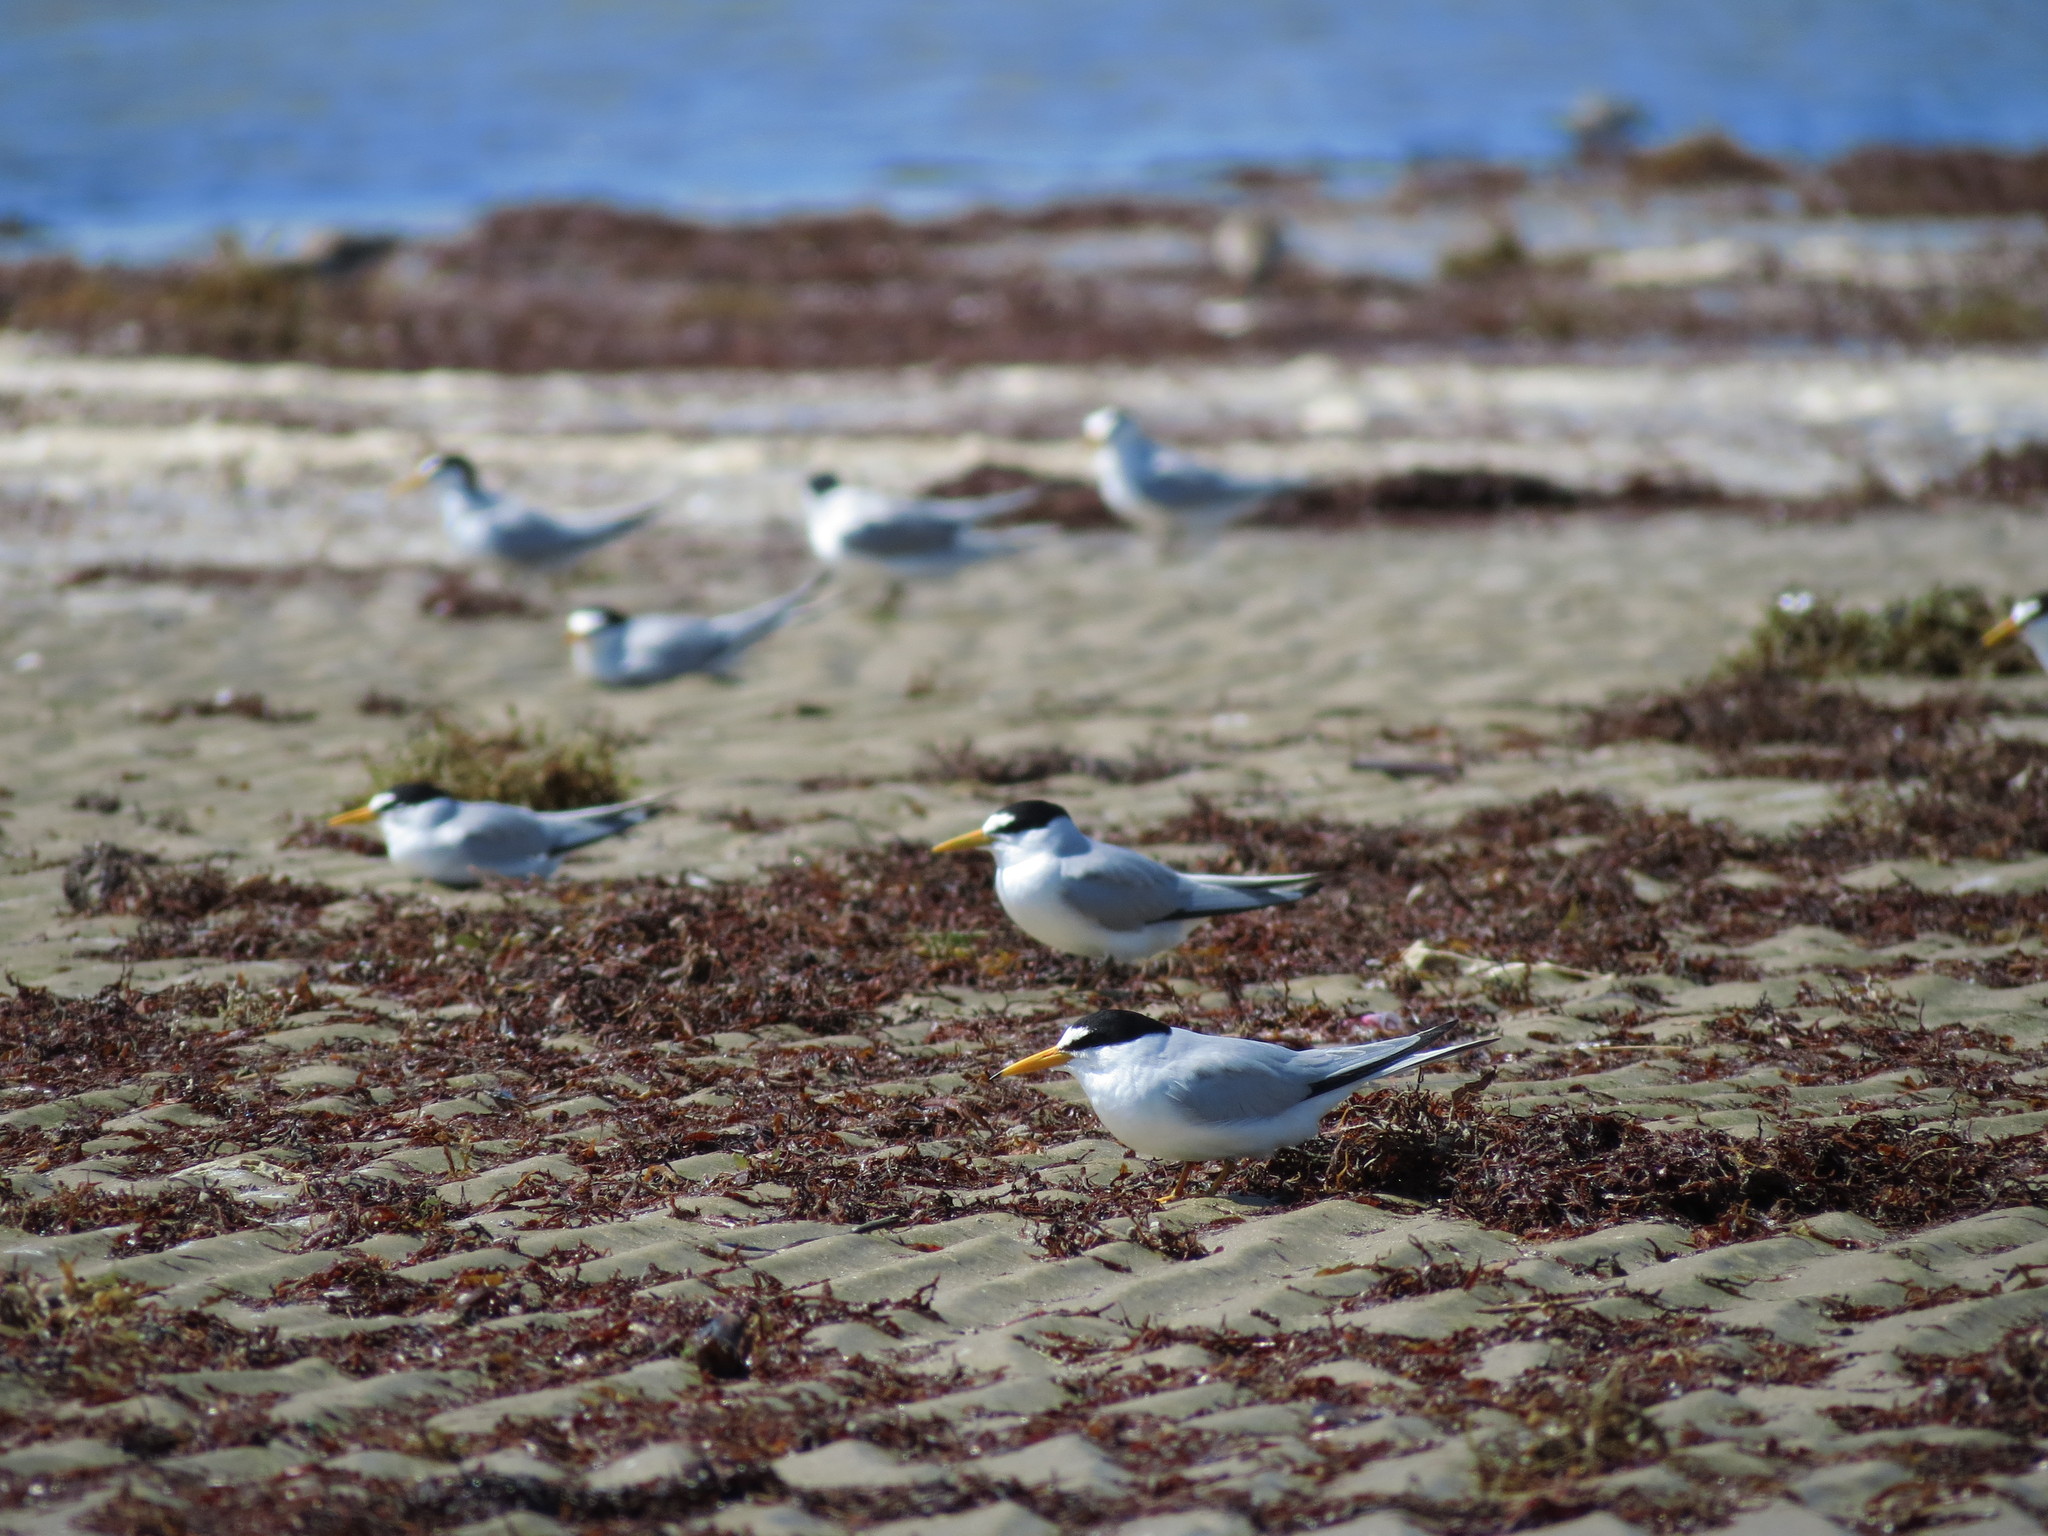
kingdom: Animalia
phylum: Chordata
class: Aves
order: Charadriiformes
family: Laridae
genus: Sternula
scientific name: Sternula antillarum
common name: Least tern
